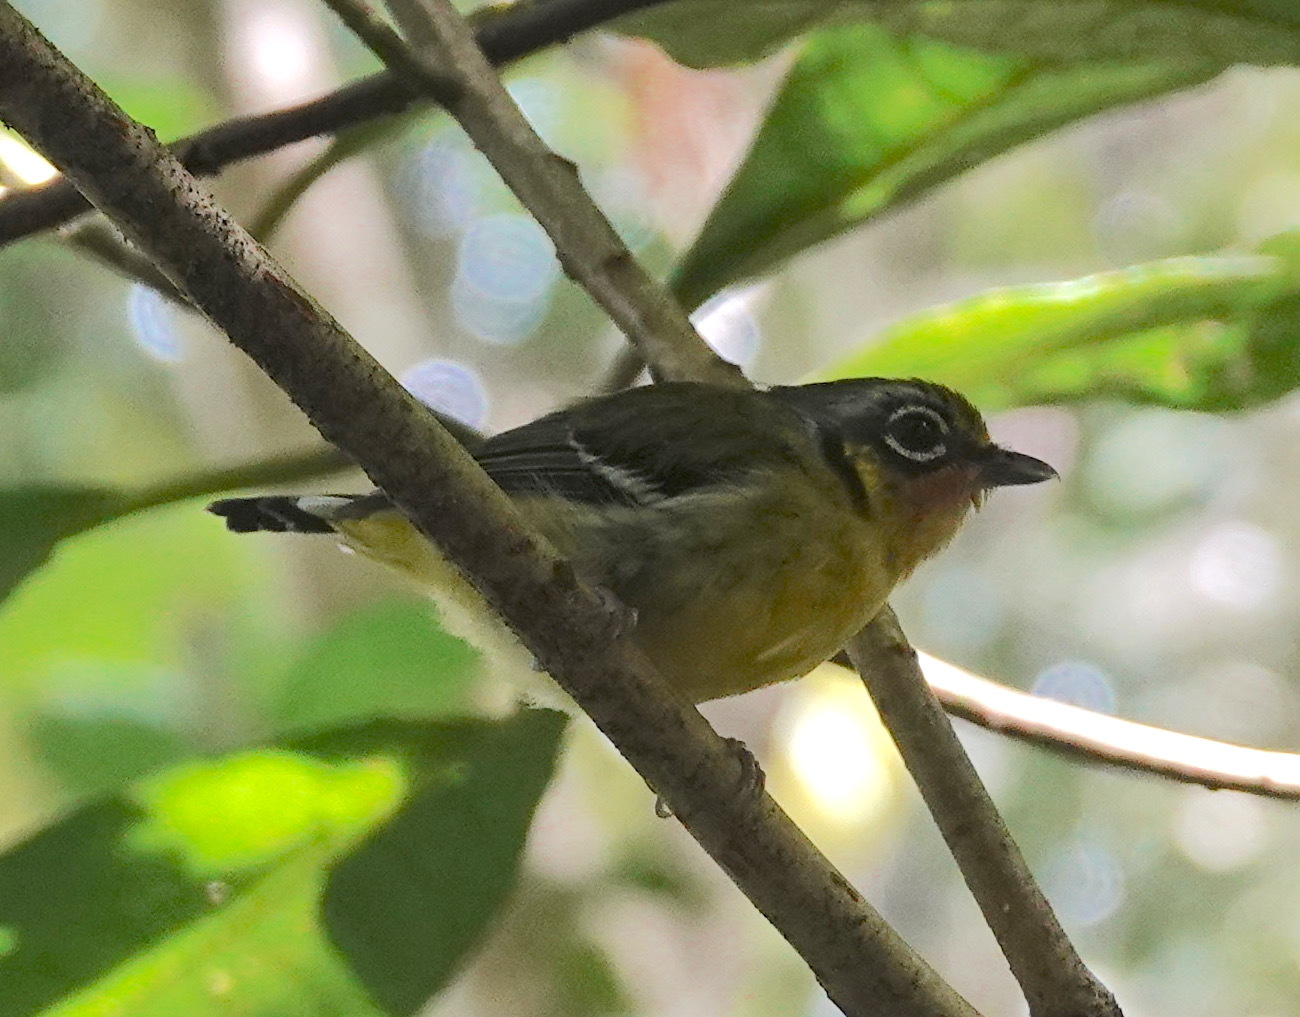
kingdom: Animalia
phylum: Chordata
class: Aves
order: Passeriformes
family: Vireonidae
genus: Pteruthius
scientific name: Pteruthius melanotis
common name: Black-eared shrike-babbler
